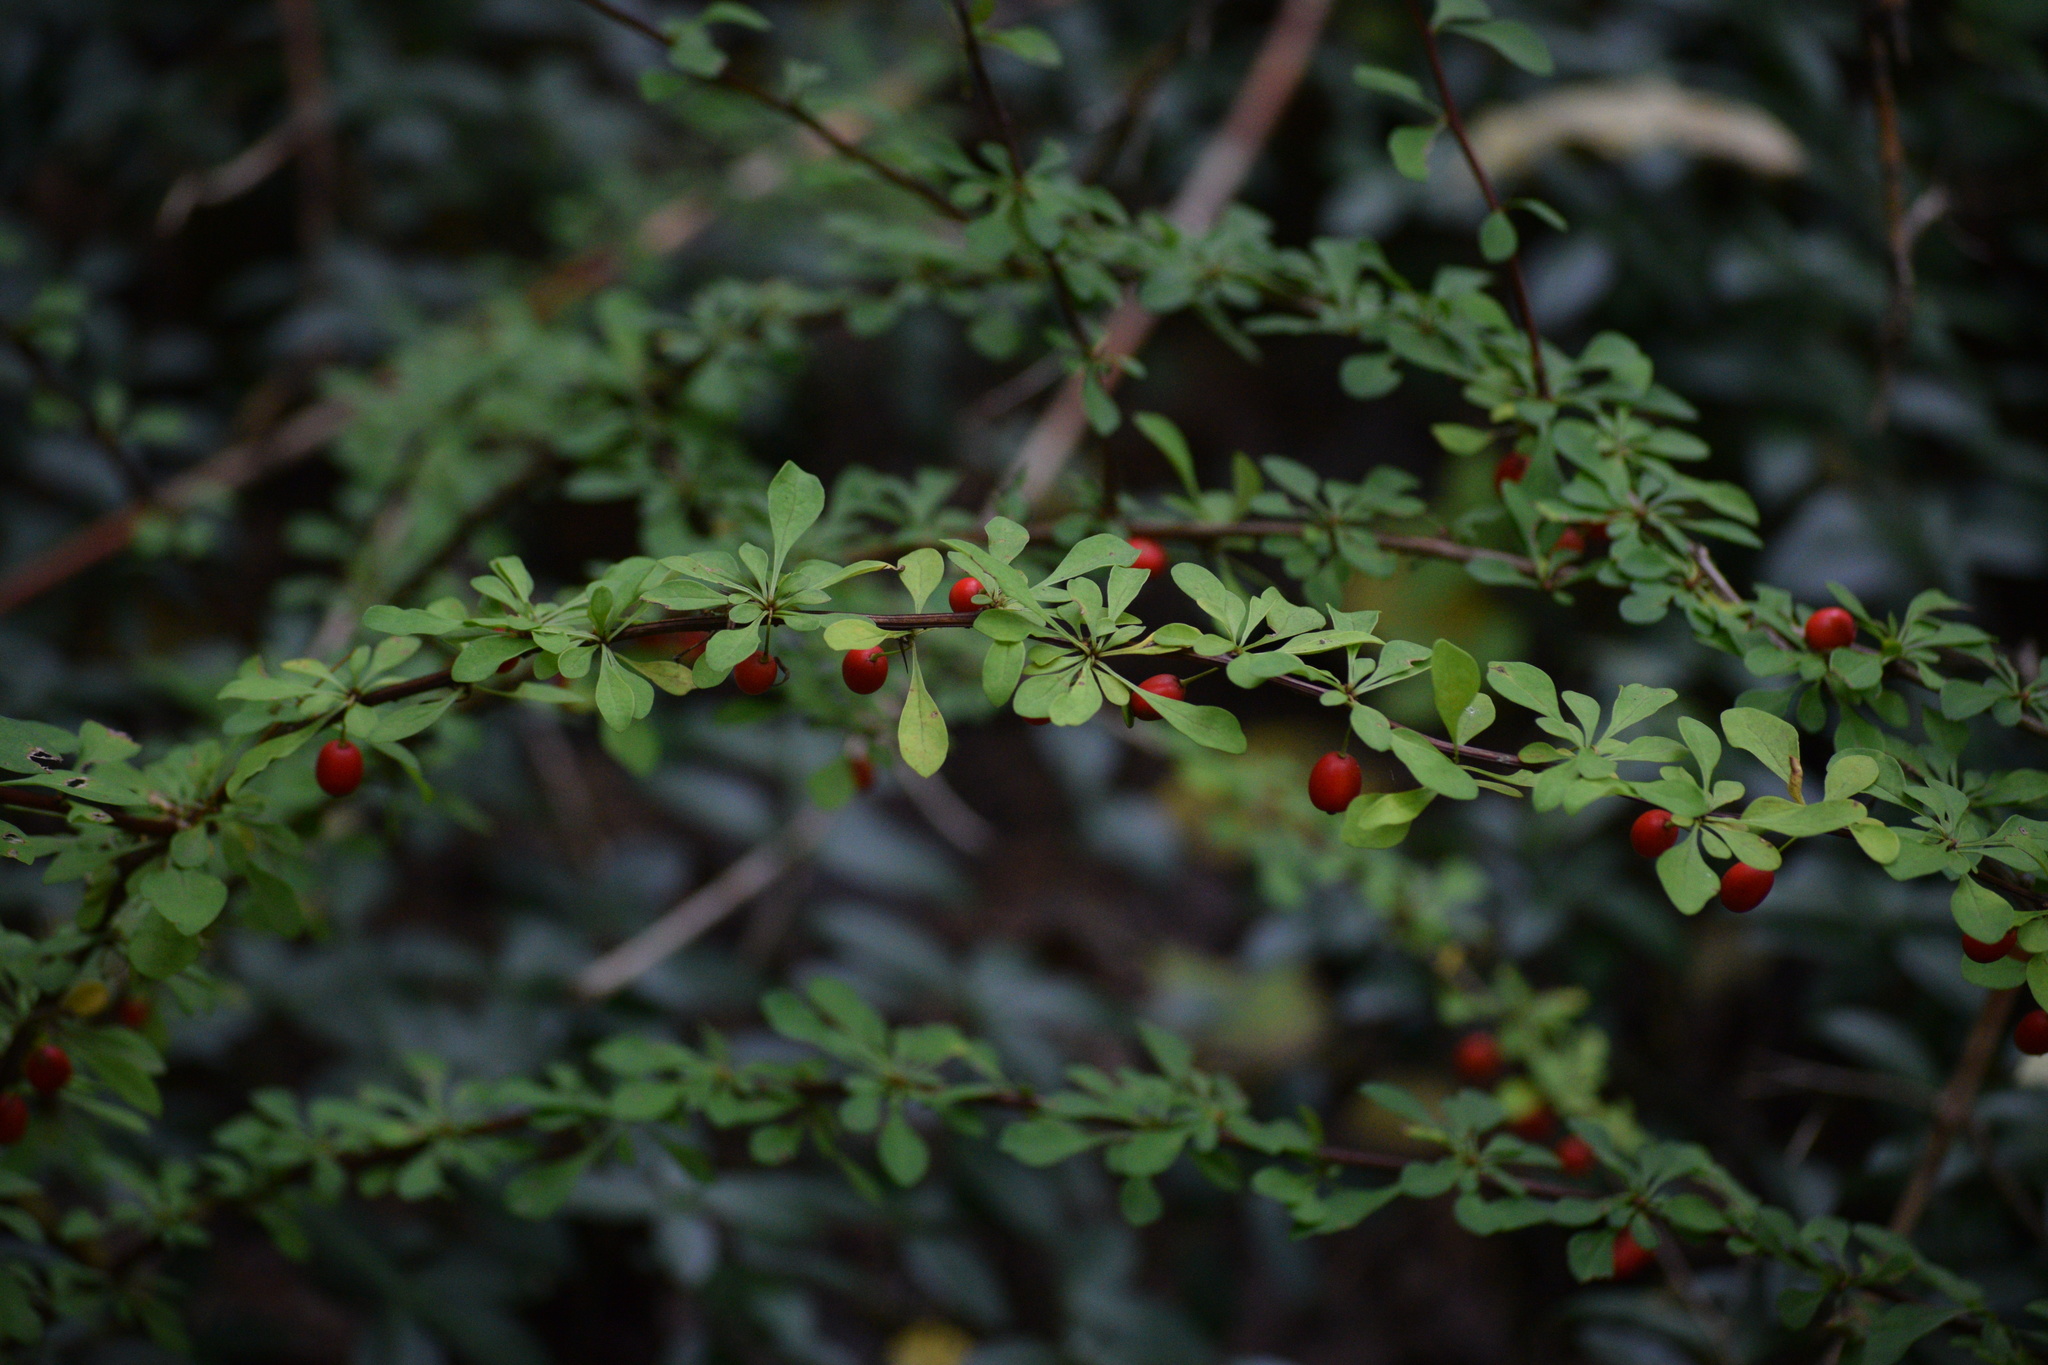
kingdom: Plantae
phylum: Tracheophyta
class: Magnoliopsida
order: Ranunculales
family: Berberidaceae
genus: Berberis
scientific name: Berberis thunbergii
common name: Japanese barberry
